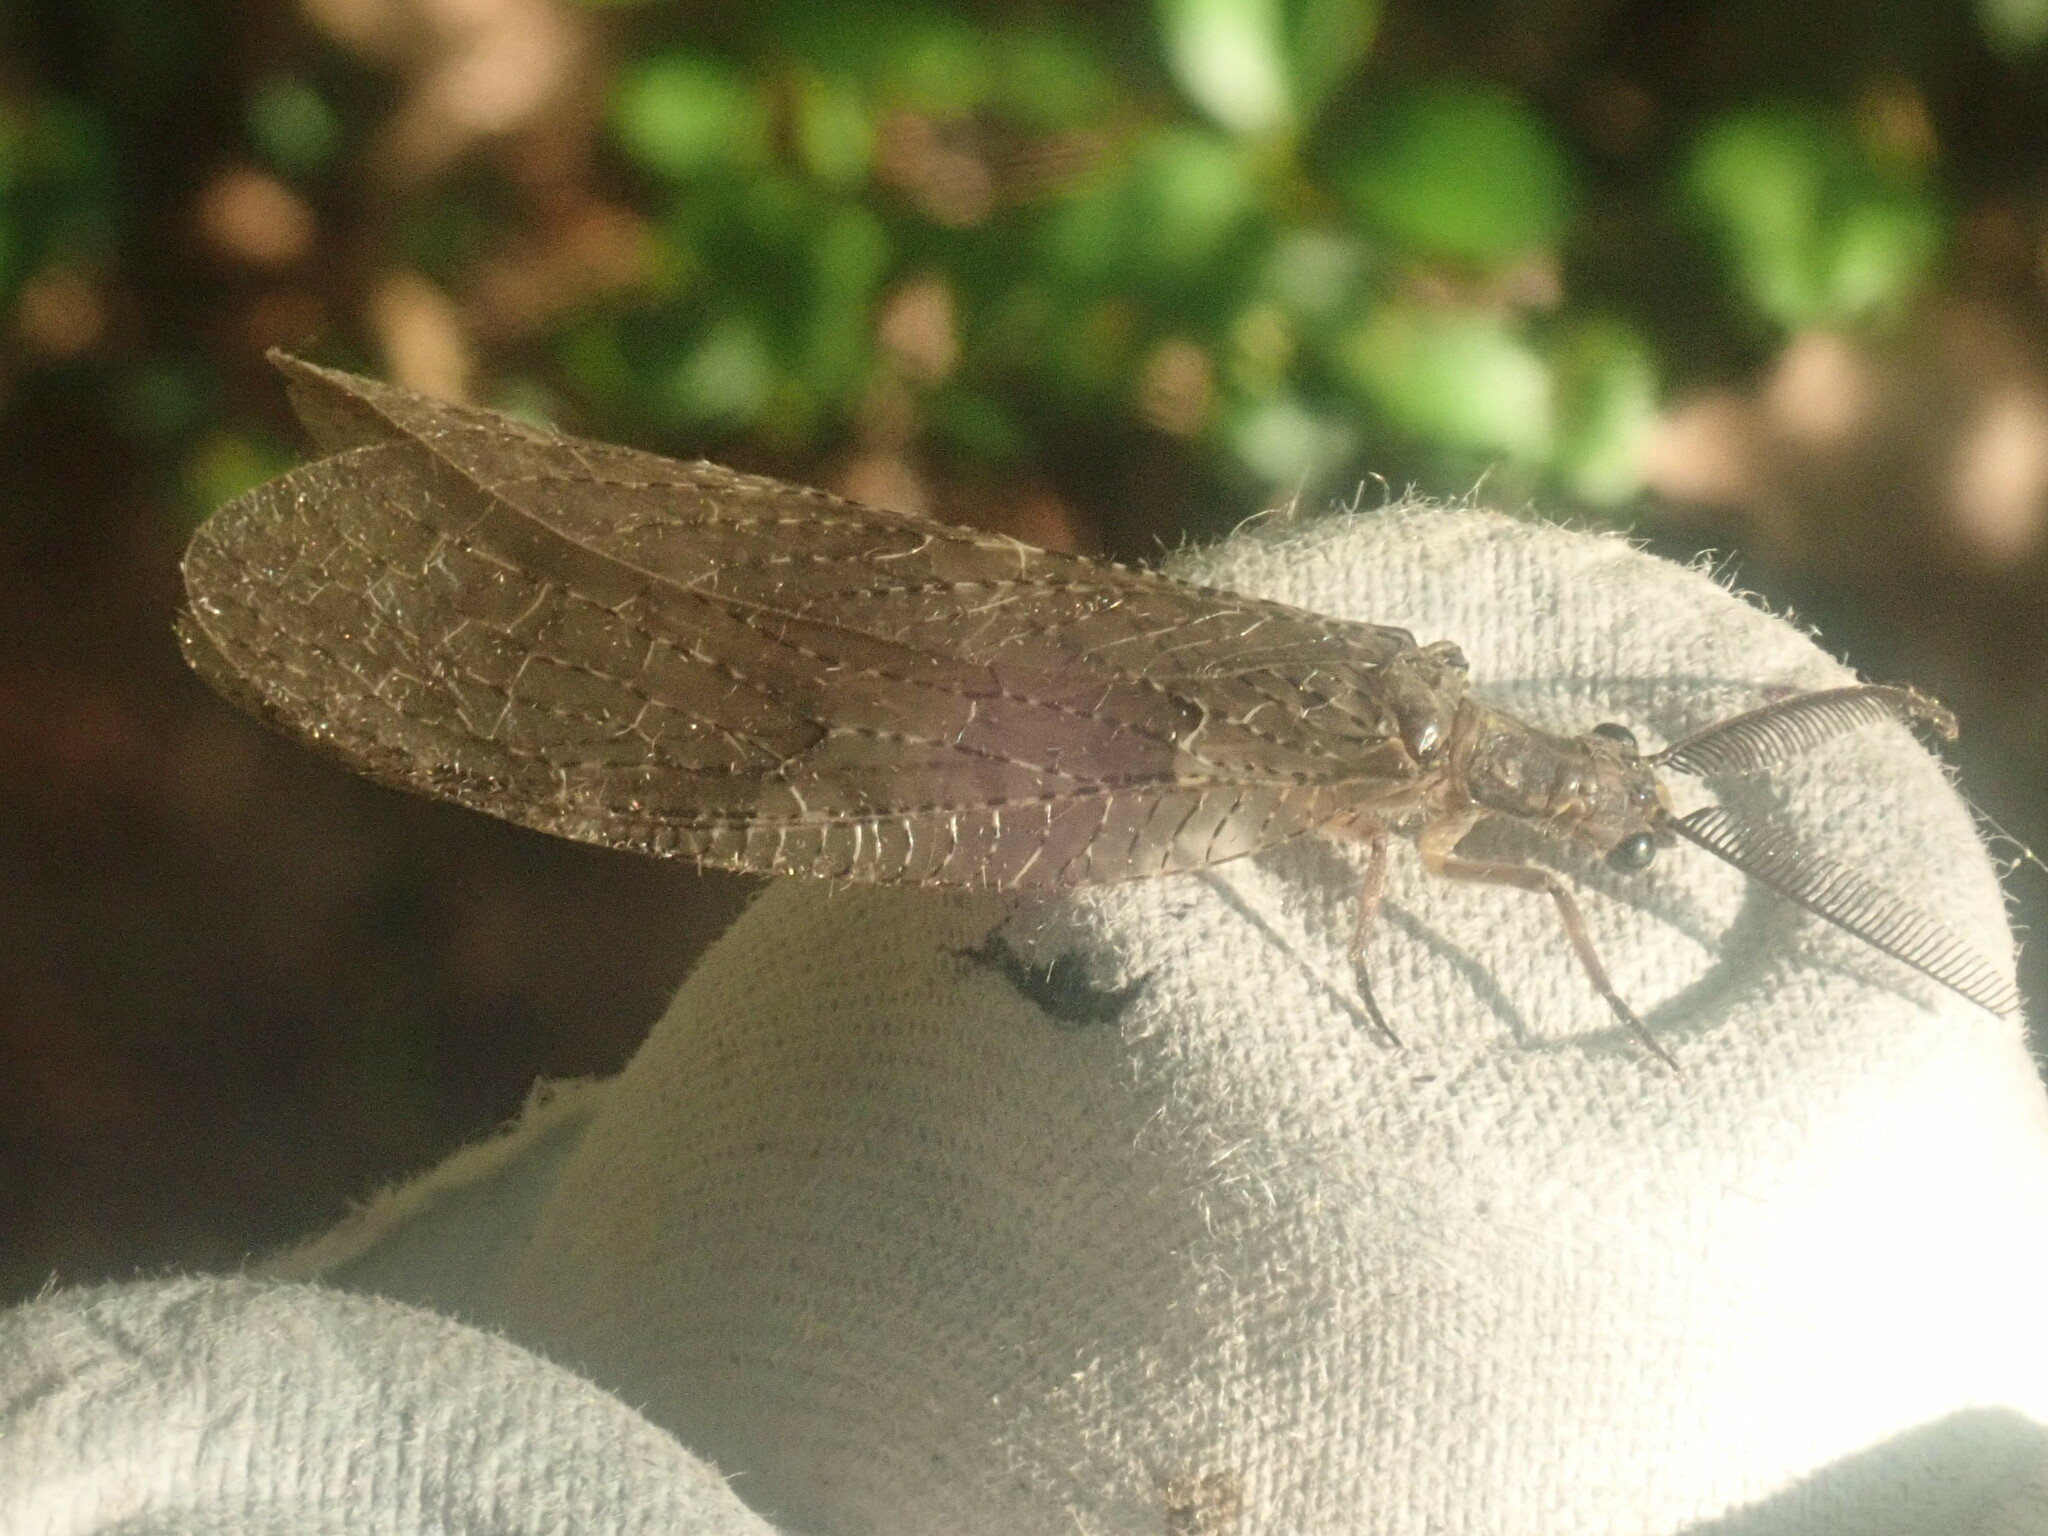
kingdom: Animalia
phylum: Arthropoda
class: Insecta
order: Megaloptera
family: Corydalidae
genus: Chauliodes
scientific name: Chauliodes pectinicornis
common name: Summer fishfly
